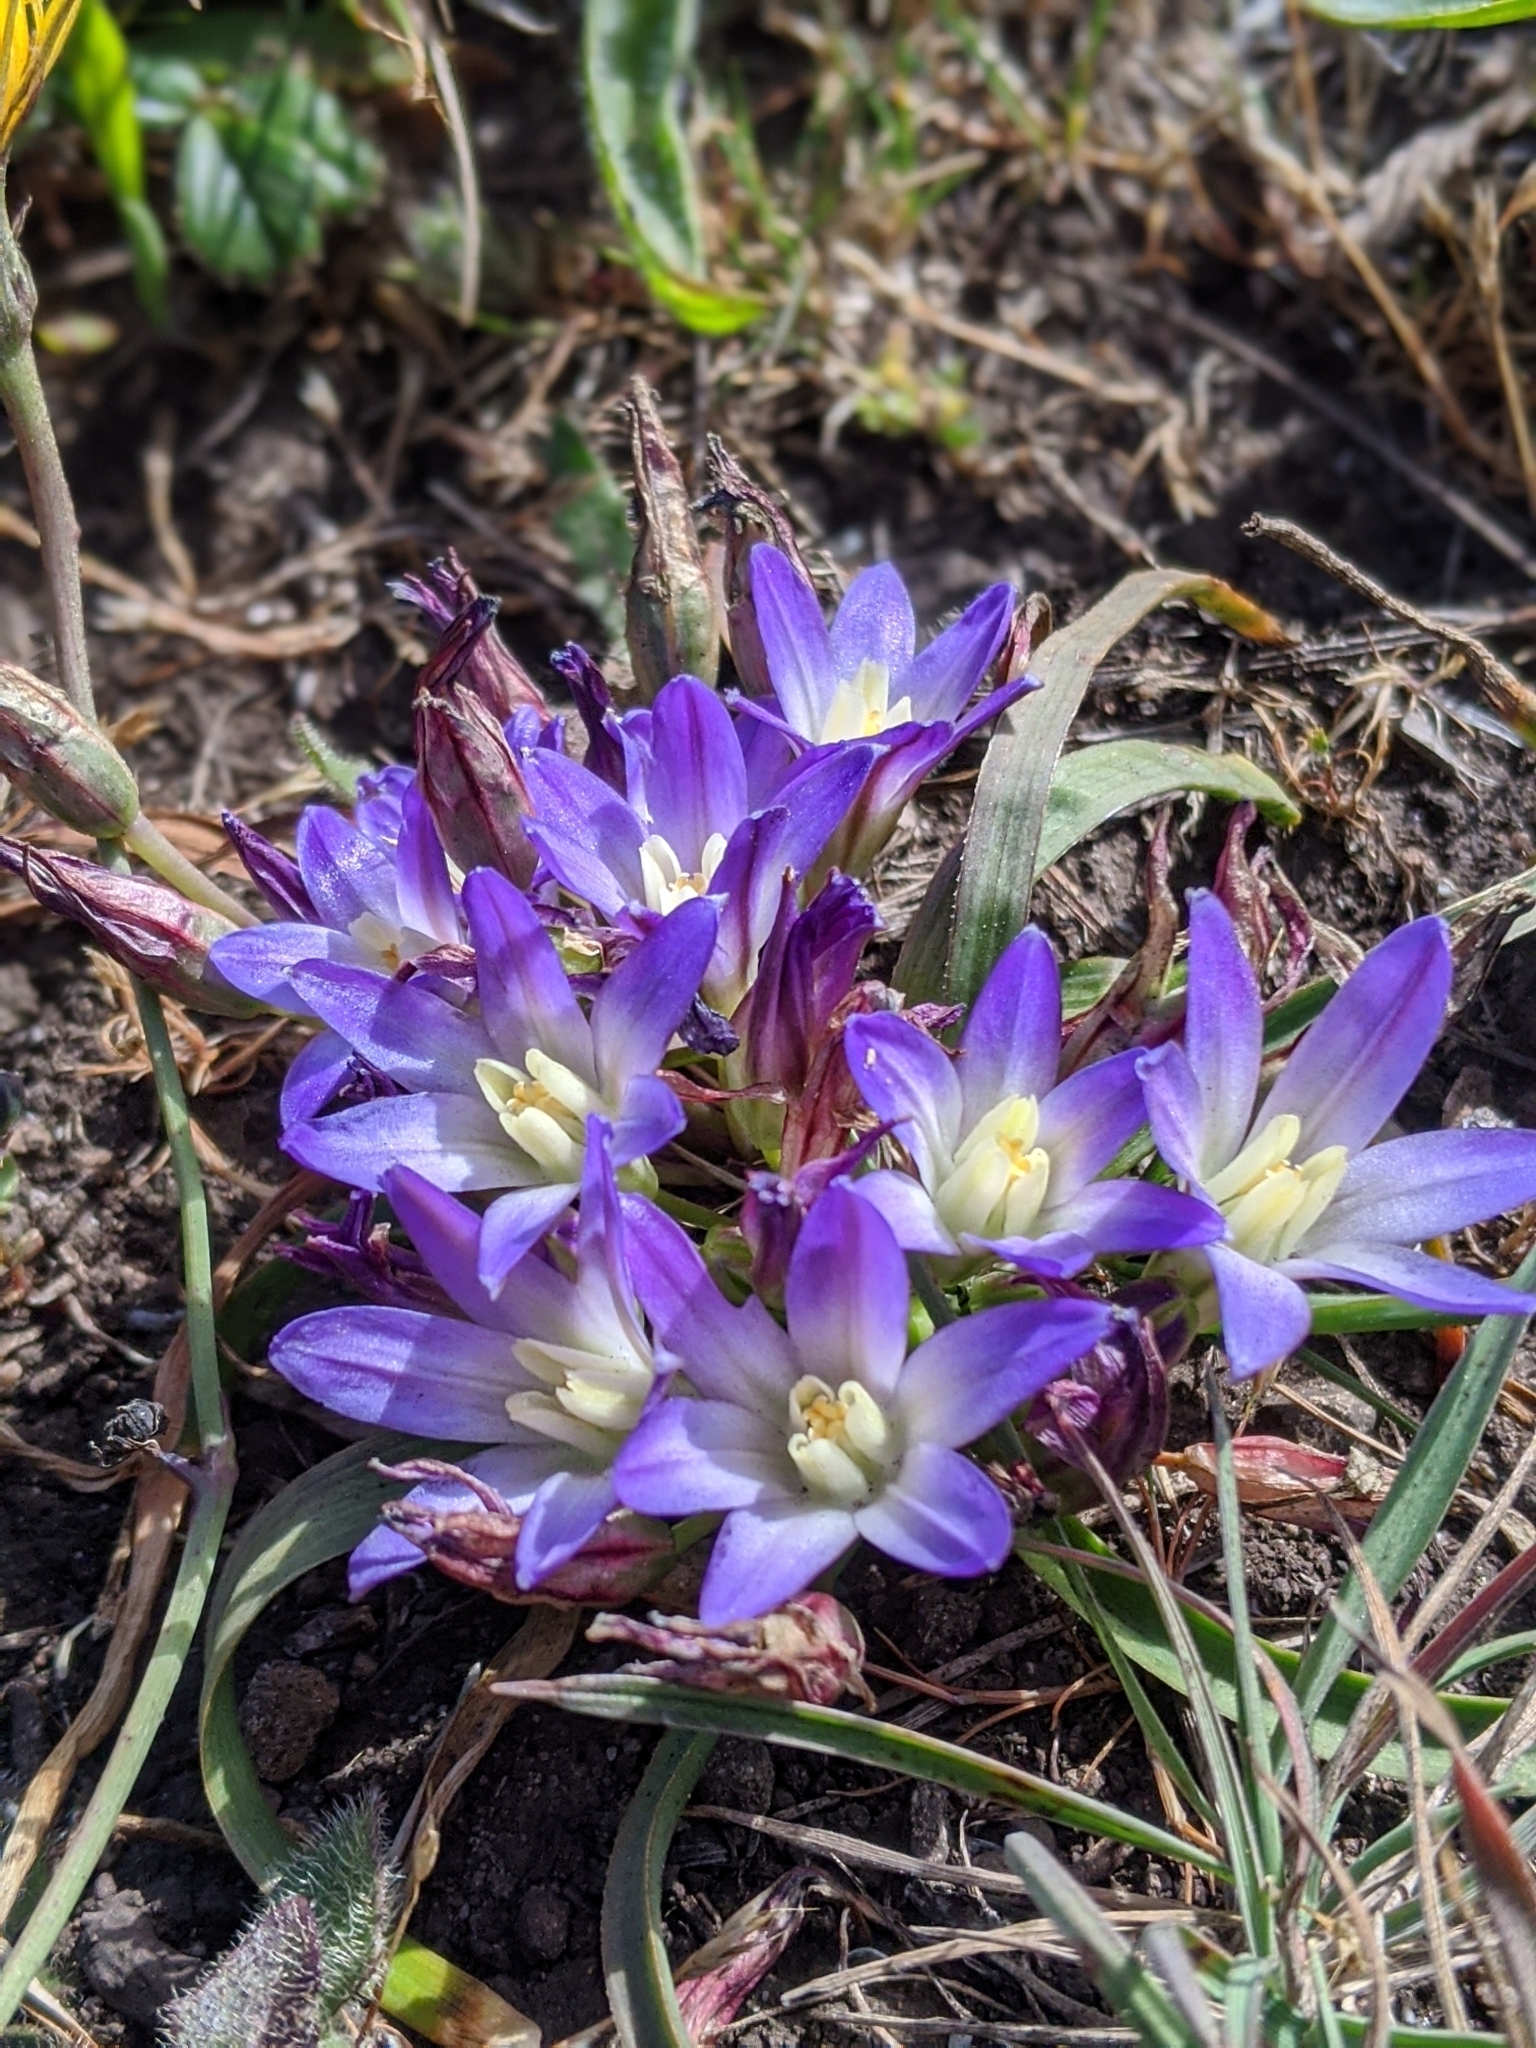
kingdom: Plantae
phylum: Tracheophyta
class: Liliopsida
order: Asparagales
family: Asparagaceae
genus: Brodiaea
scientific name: Brodiaea terrestris
